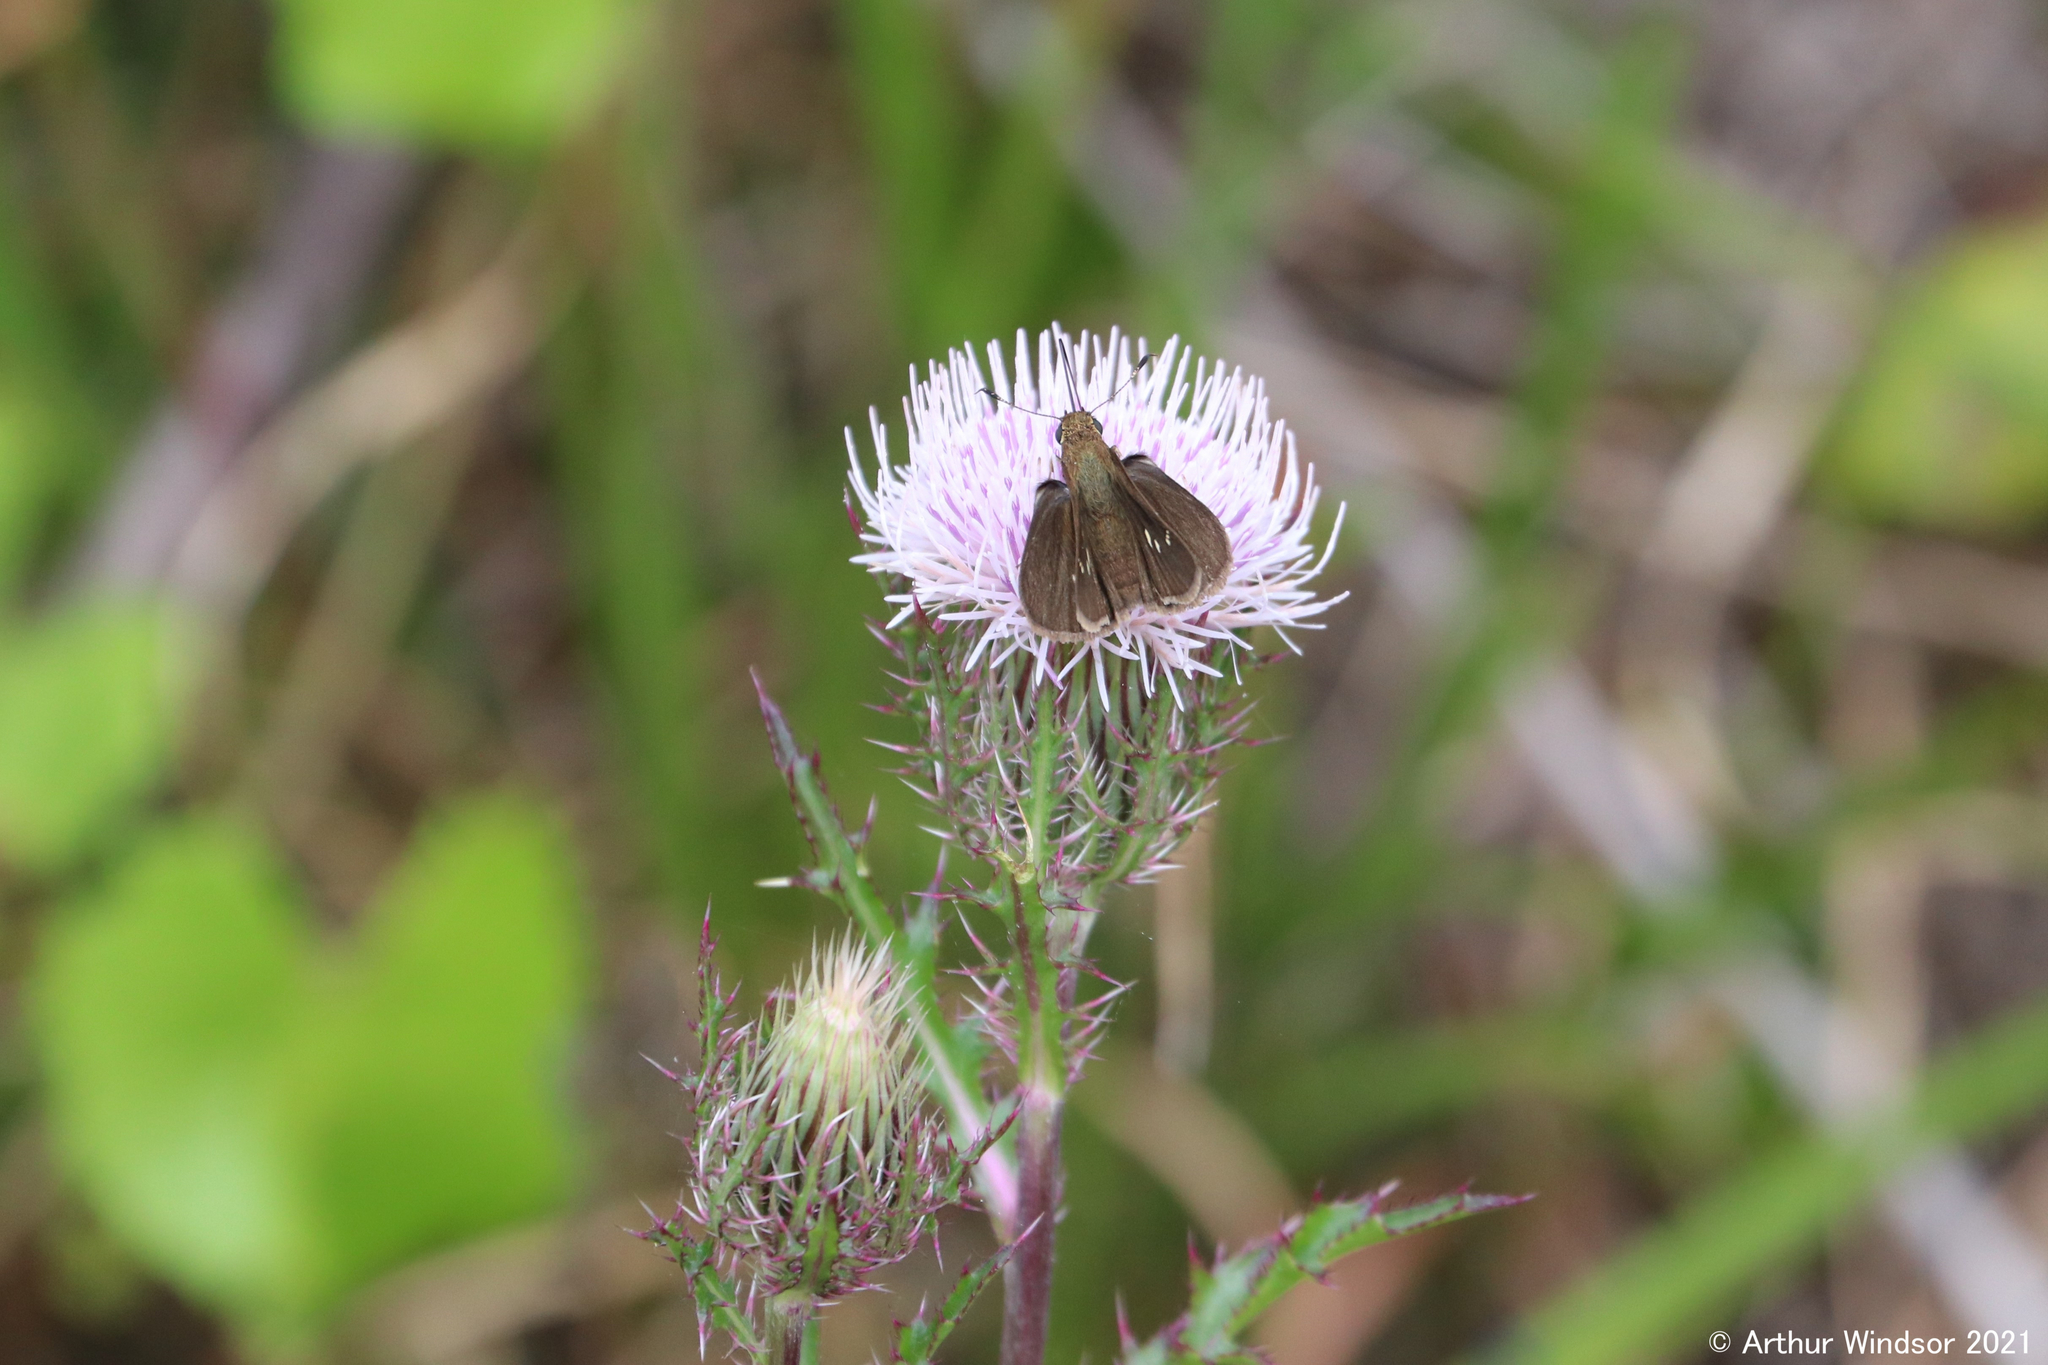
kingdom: Animalia
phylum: Arthropoda
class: Insecta
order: Lepidoptera
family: Hesperiidae
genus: Cymaenes
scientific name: Cymaenes tripunctus
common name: Dingy dotted skipper
